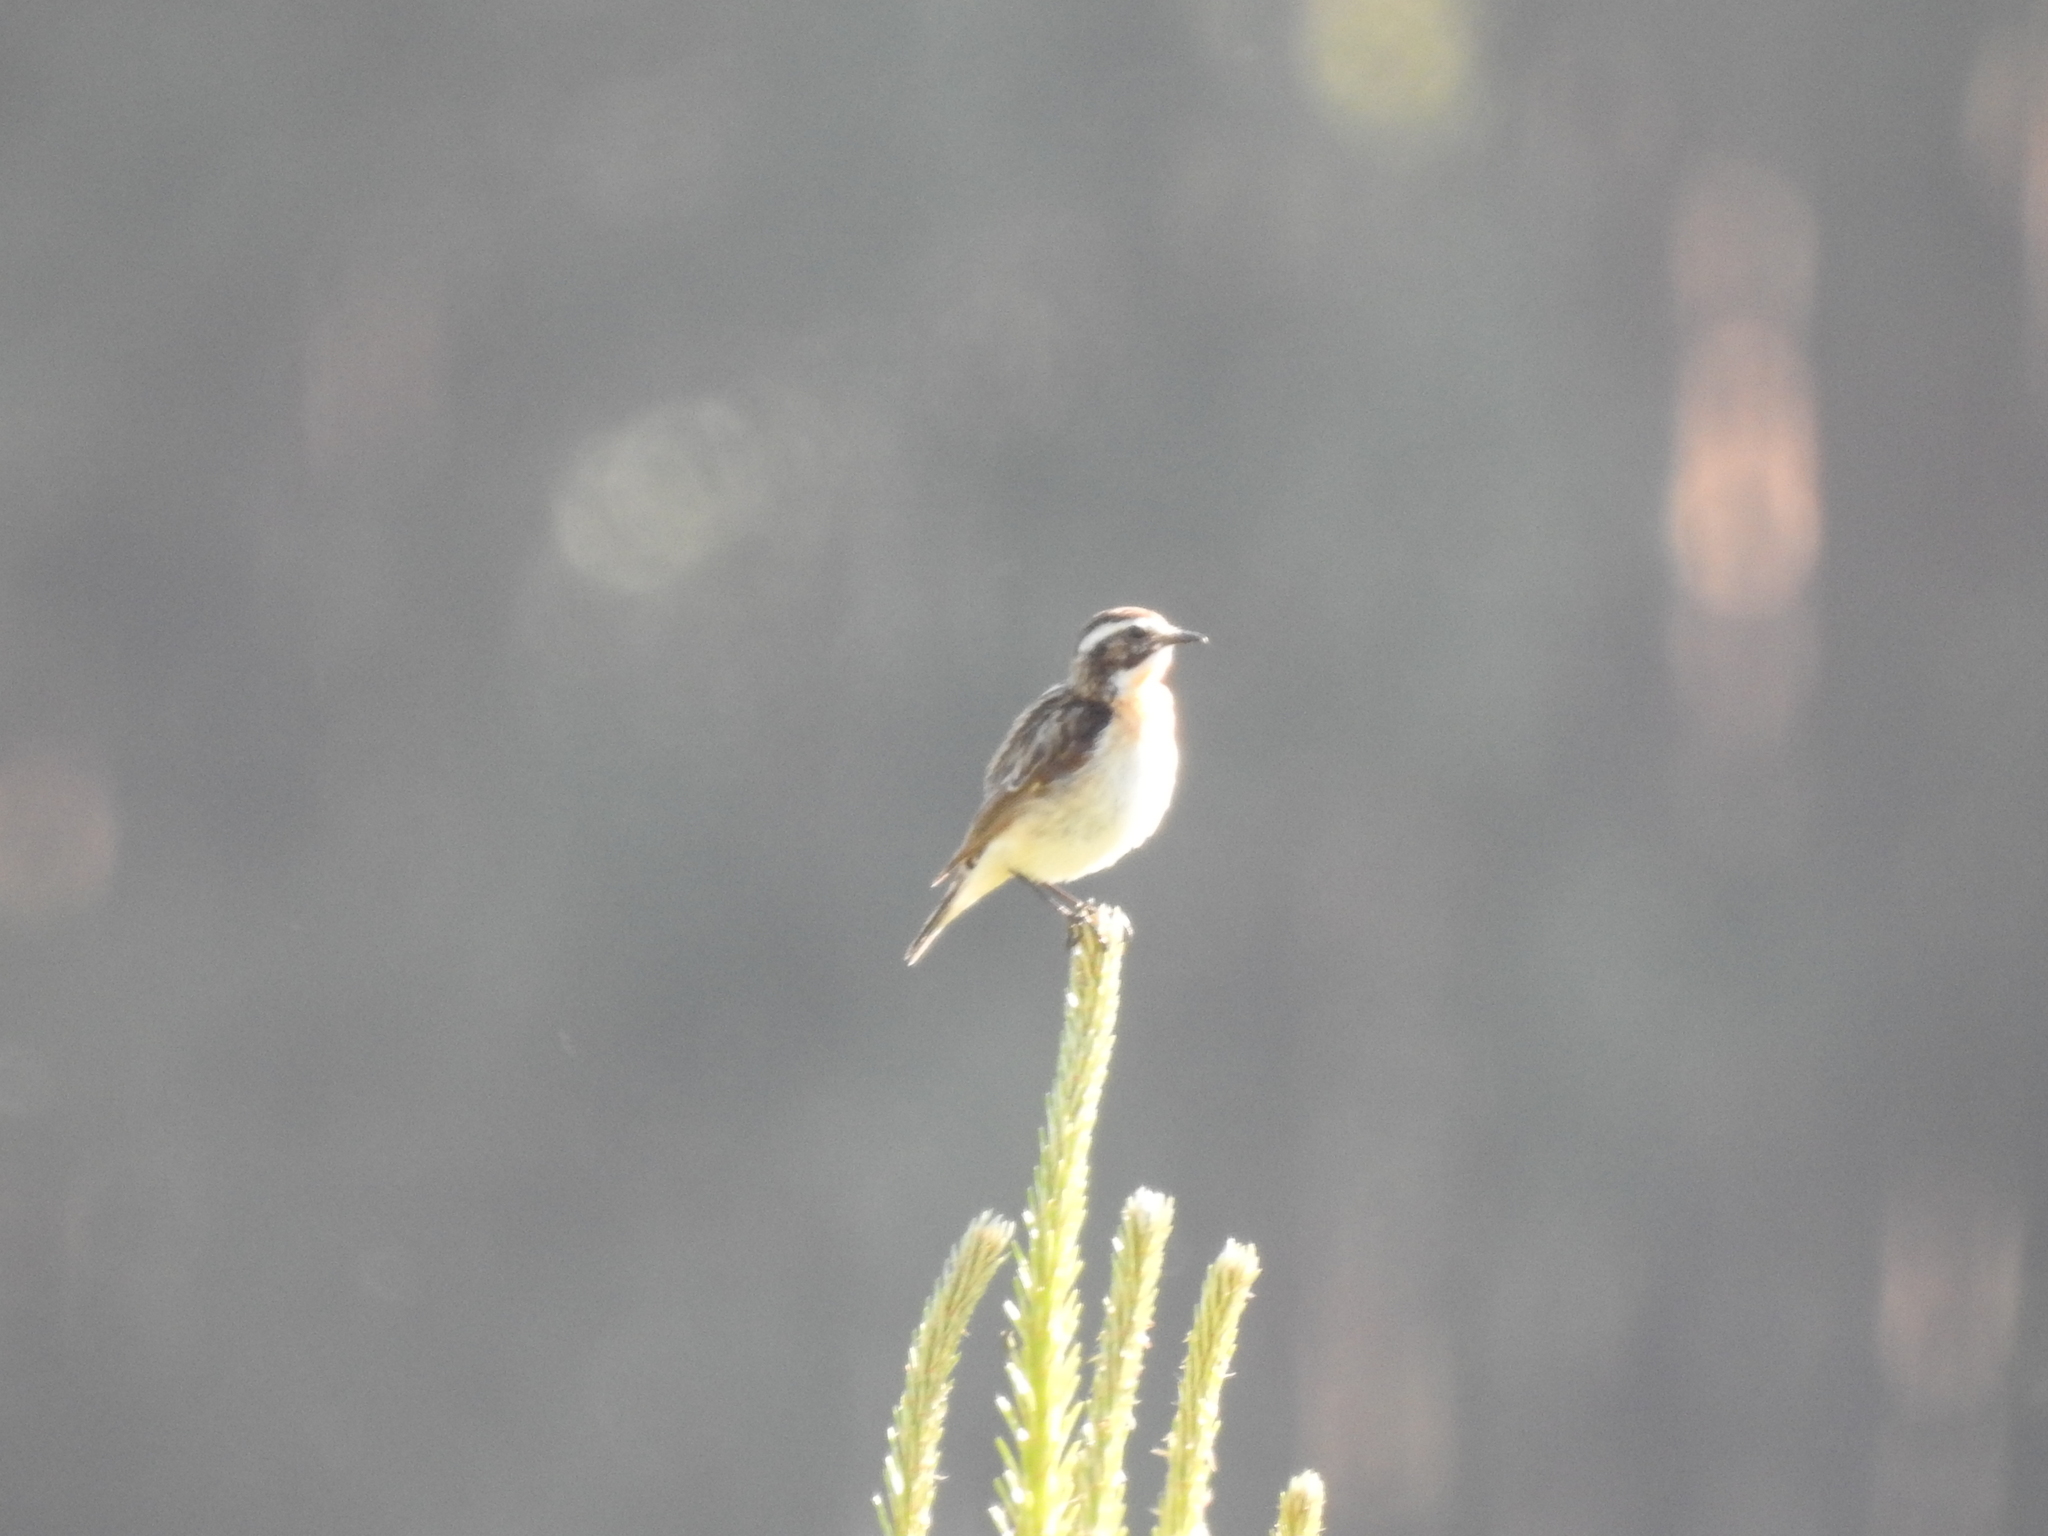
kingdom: Animalia
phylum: Chordata
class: Aves
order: Passeriformes
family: Muscicapidae
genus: Saxicola
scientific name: Saxicola rubetra
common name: Whinchat
